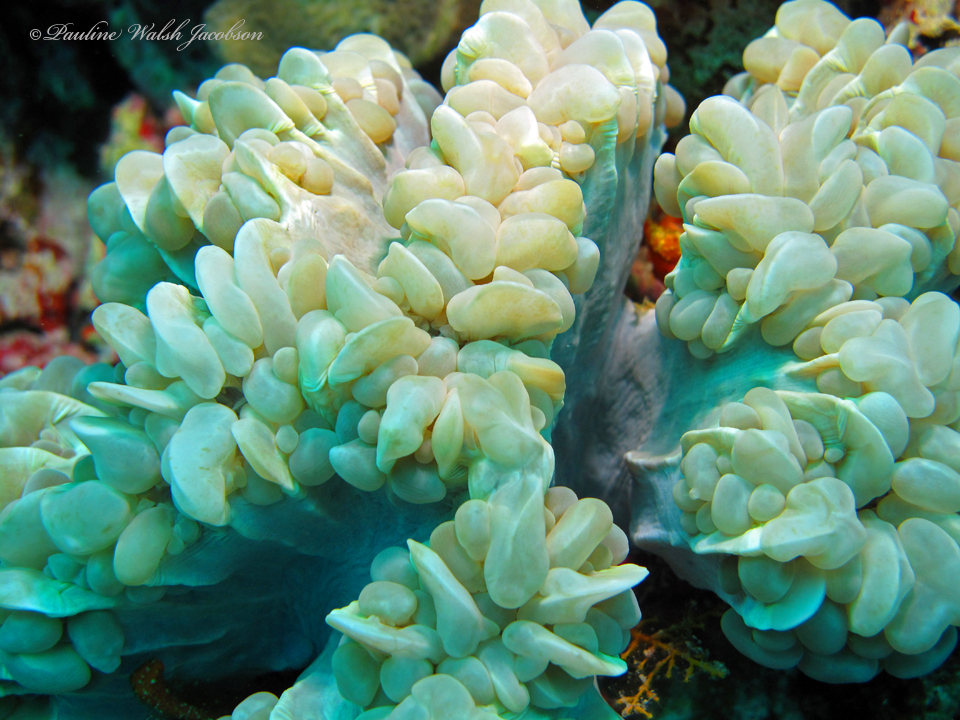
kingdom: Animalia
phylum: Cnidaria
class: Anthozoa
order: Scleractinia
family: Plerogyridae
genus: Plerogyra
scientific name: Plerogyra sinuosa
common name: Bubble coral
